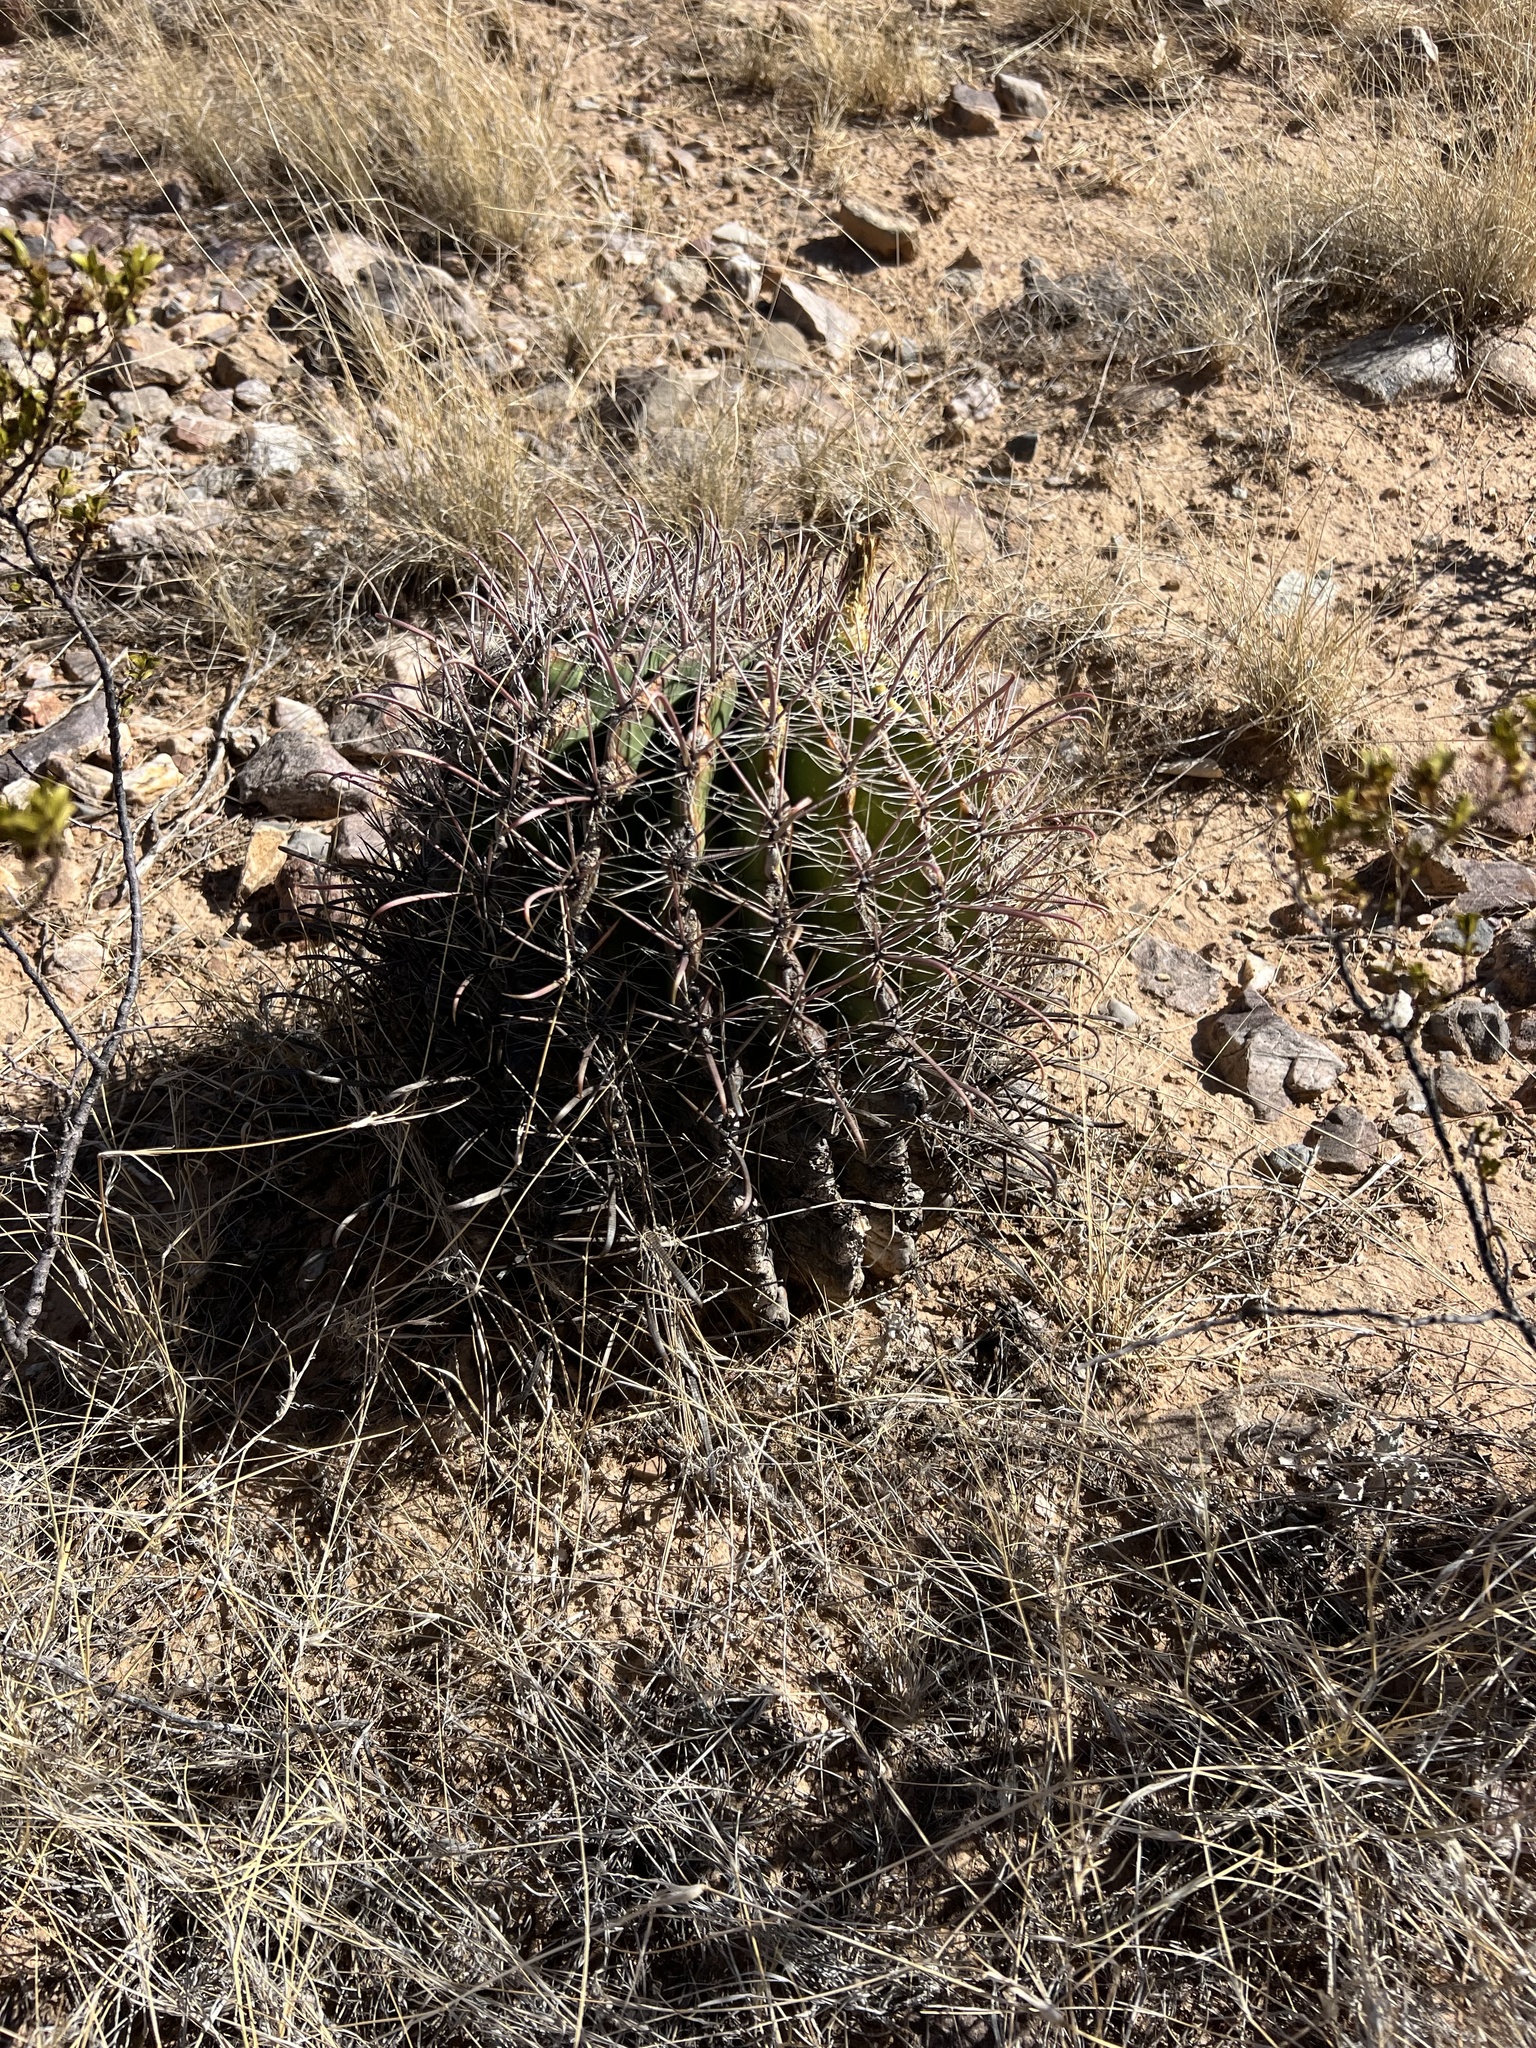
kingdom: Plantae
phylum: Tracheophyta
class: Magnoliopsida
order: Caryophyllales
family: Cactaceae
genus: Ferocactus
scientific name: Ferocactus wislizeni
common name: Candy barrel cactus
